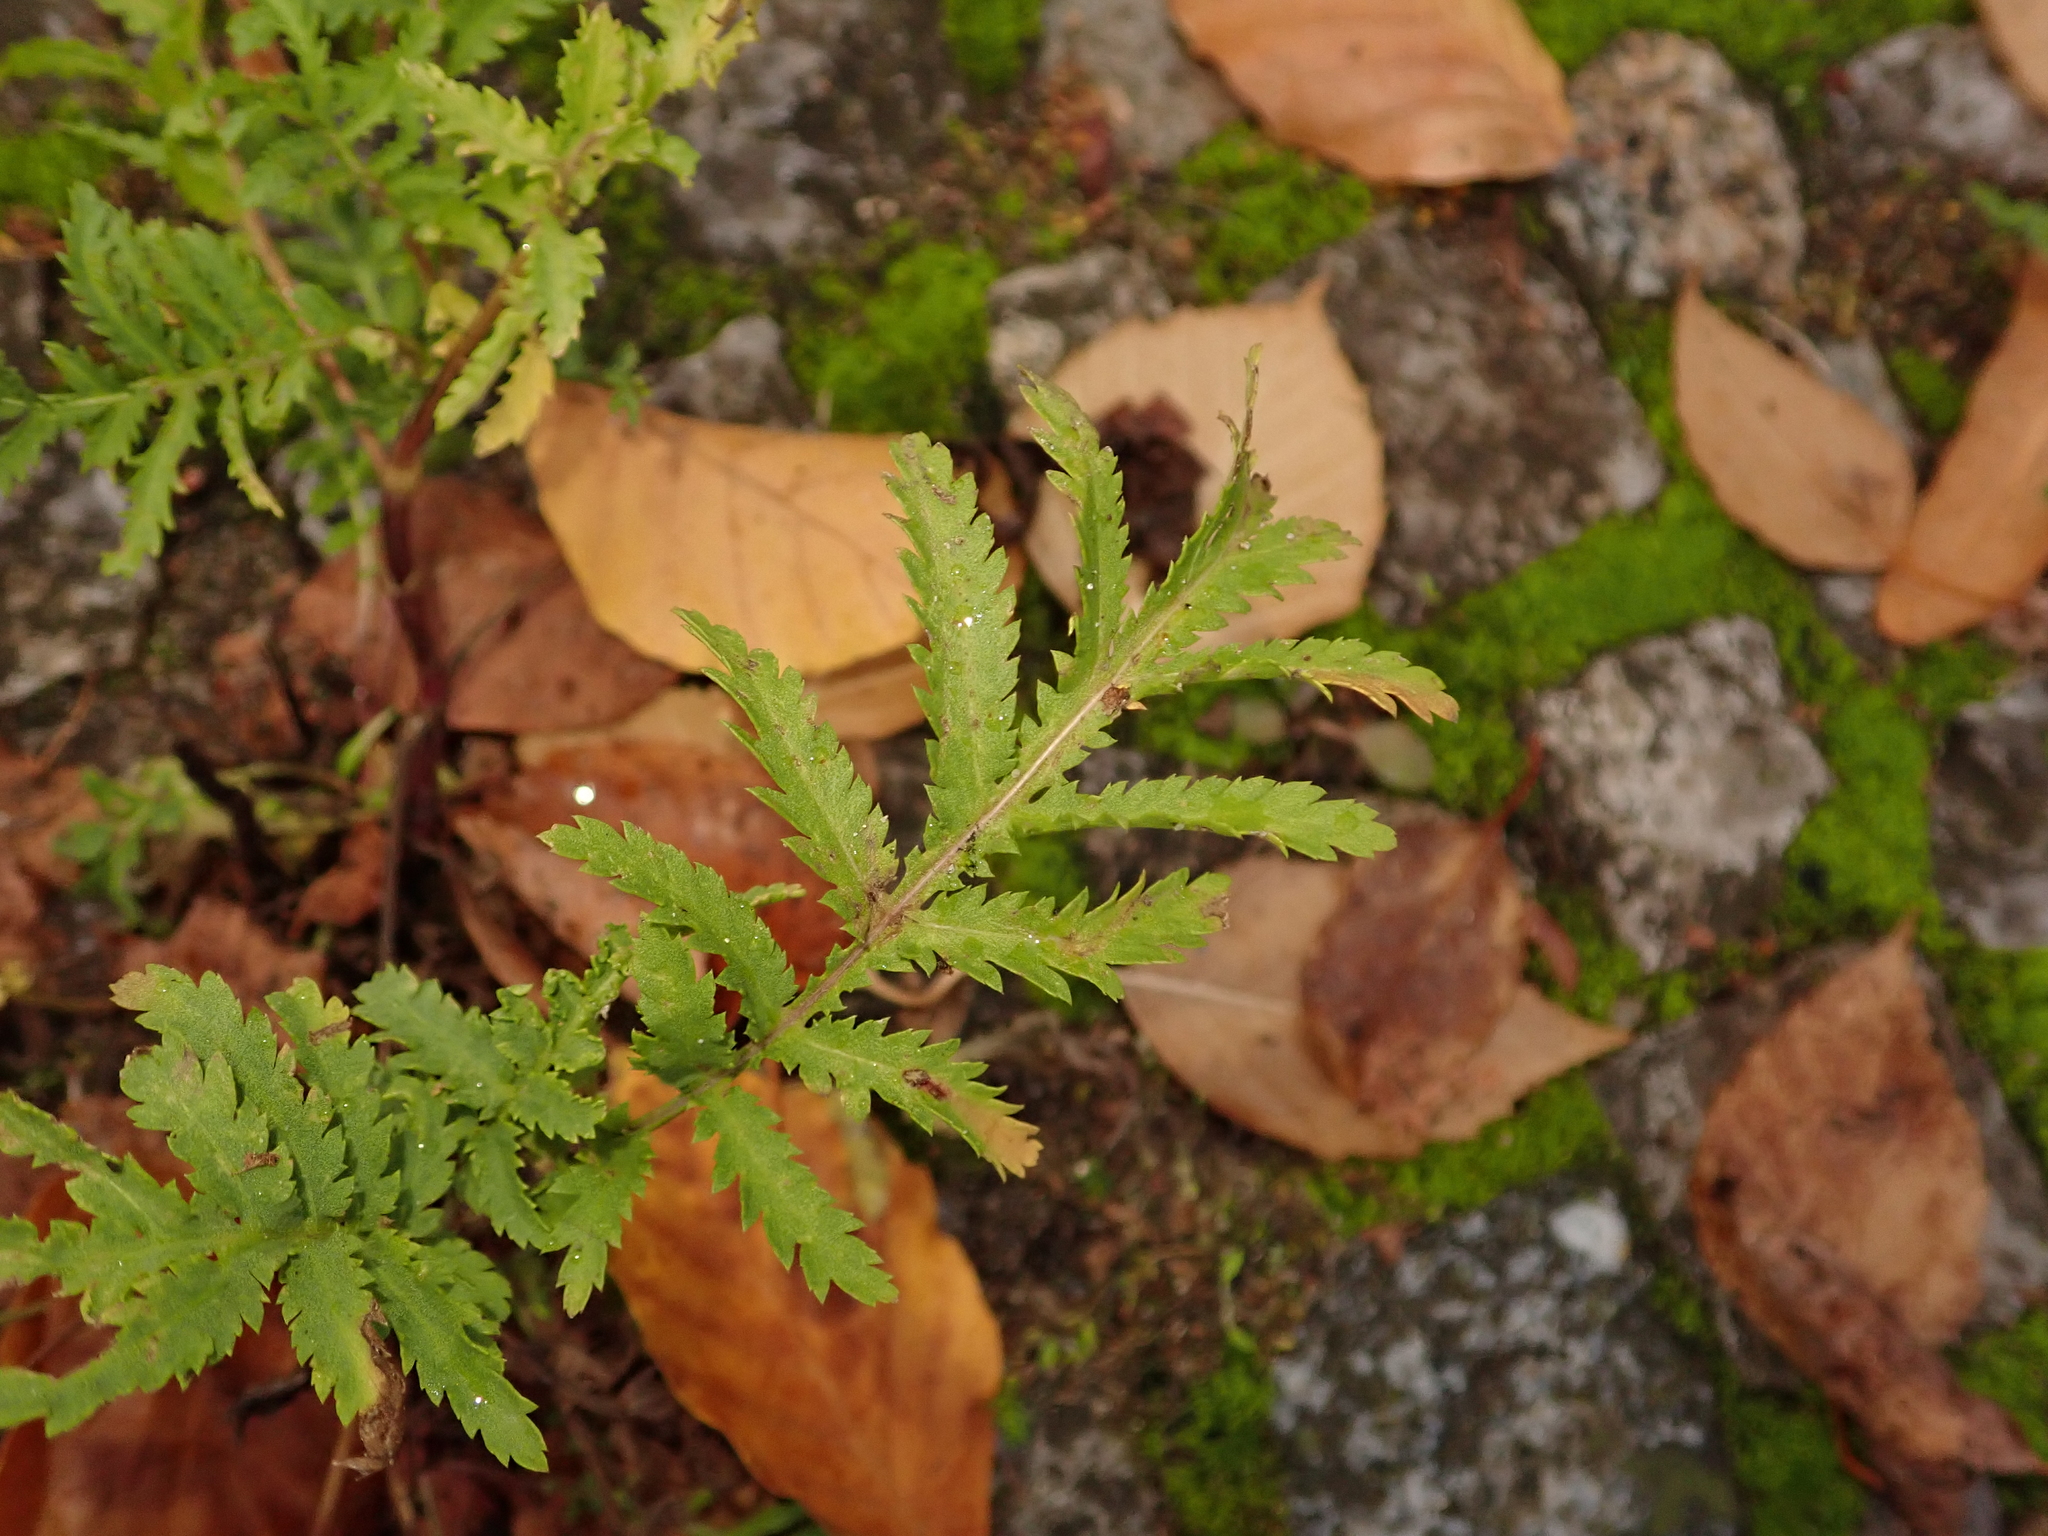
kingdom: Plantae
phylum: Tracheophyta
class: Magnoliopsida
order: Asterales
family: Asteraceae
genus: Tanacetum
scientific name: Tanacetum vulgare
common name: Common tansy
